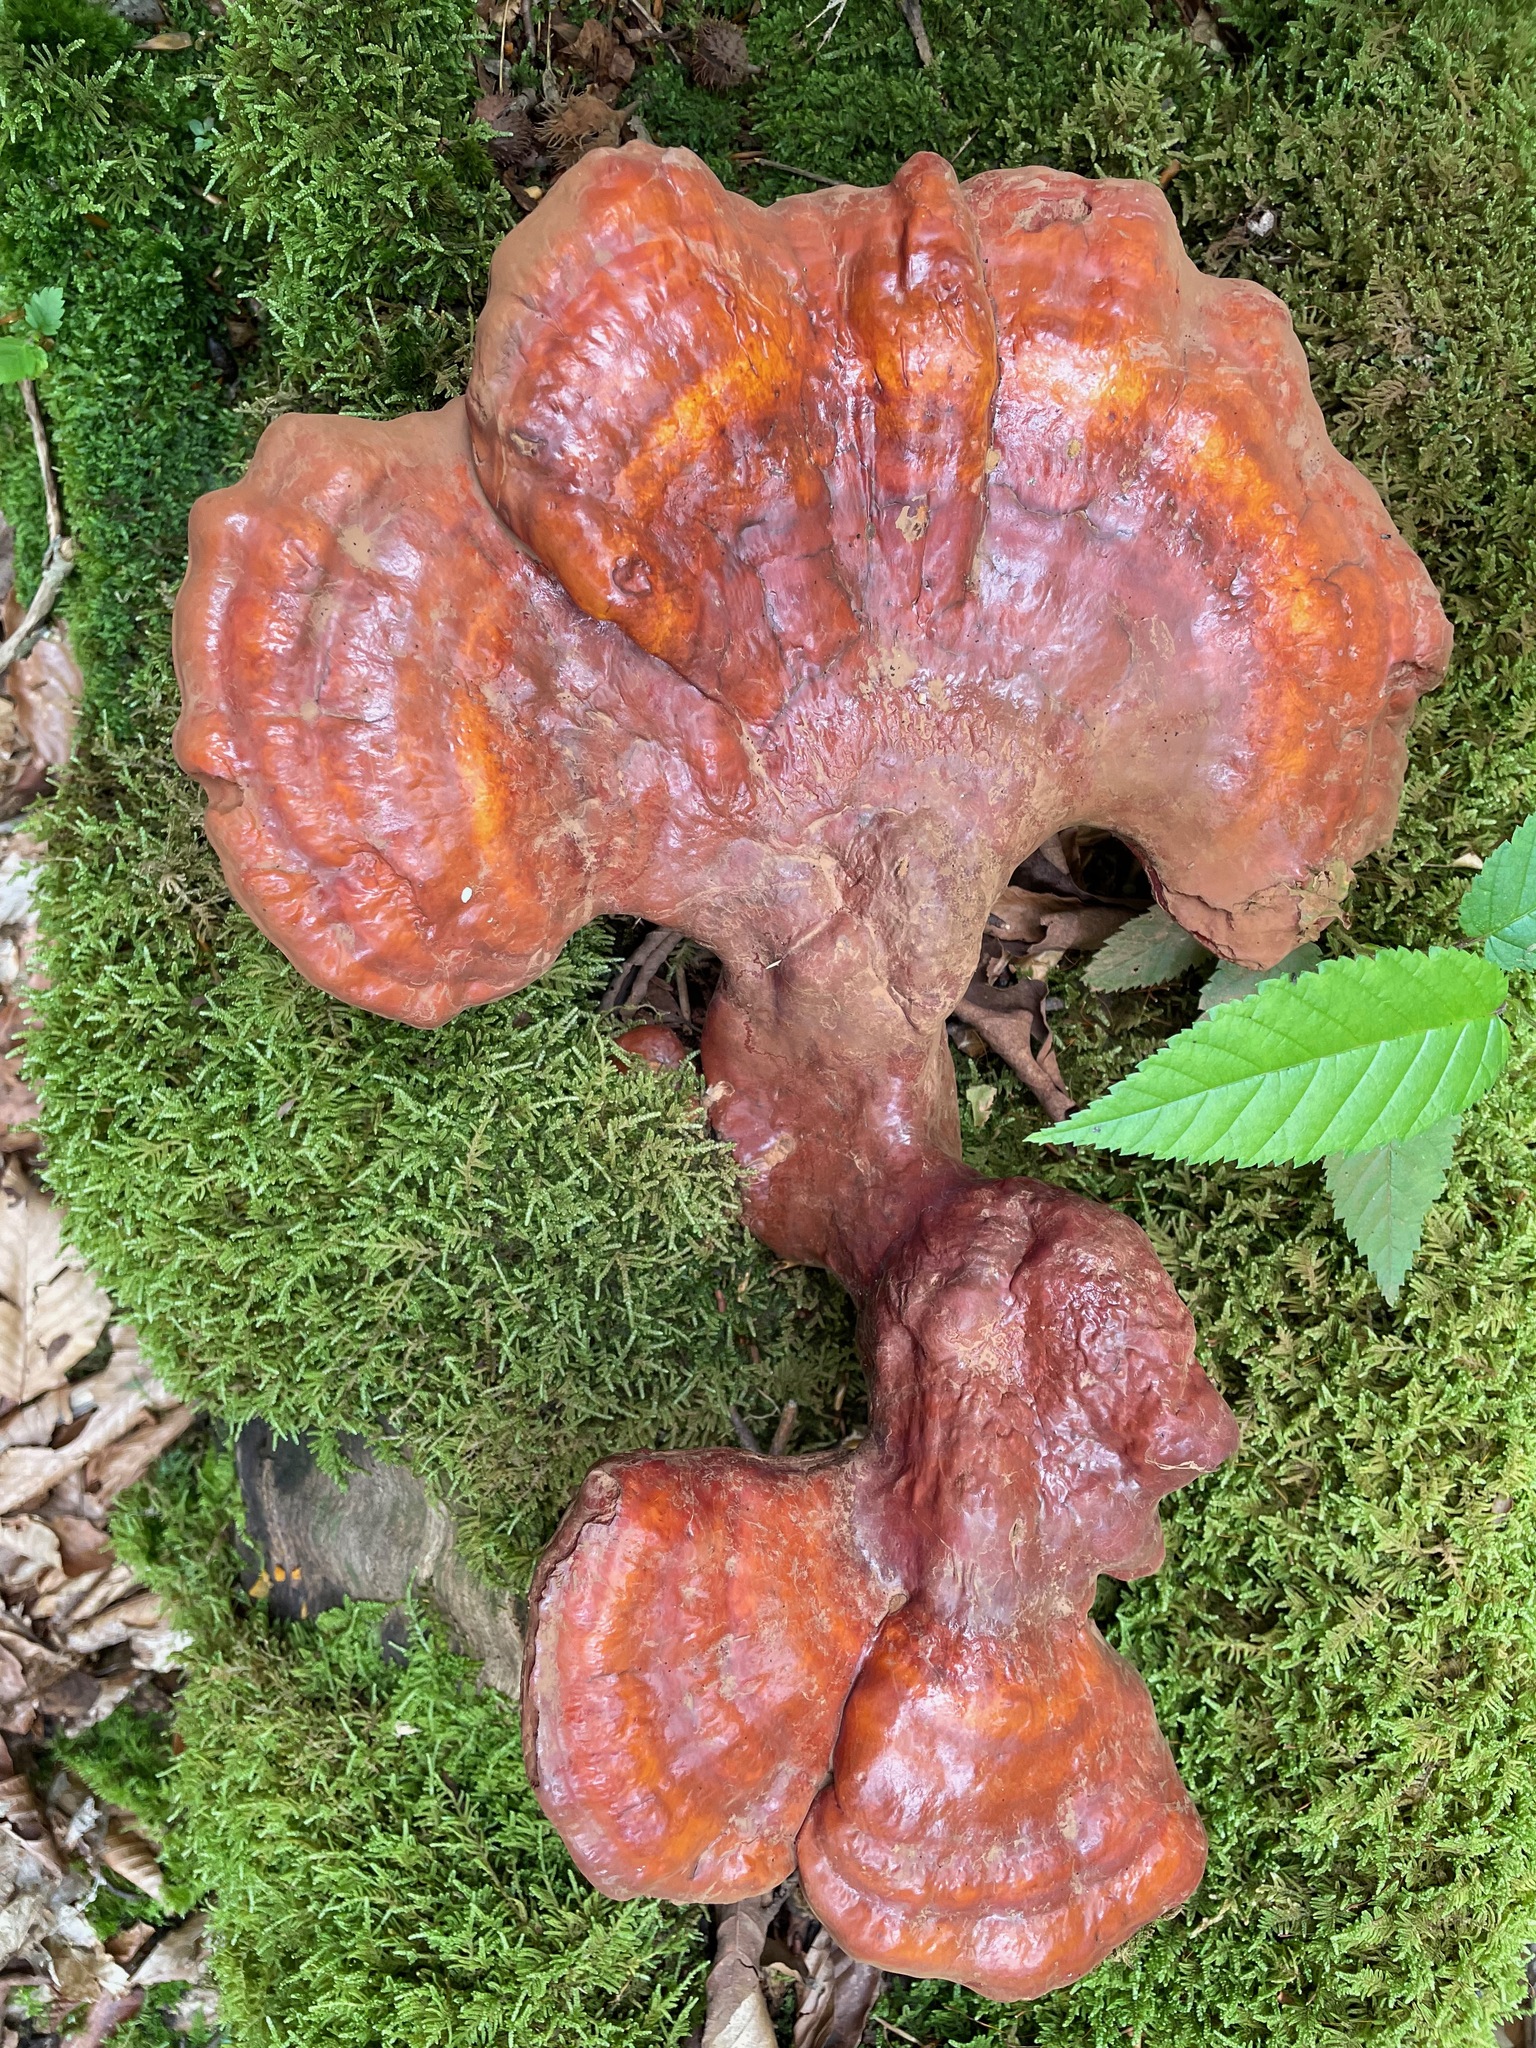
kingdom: Fungi
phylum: Basidiomycota
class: Agaricomycetes
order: Polyporales
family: Polyporaceae
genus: Ganoderma
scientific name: Ganoderma tsugae
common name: Hemlock varnish shelf
